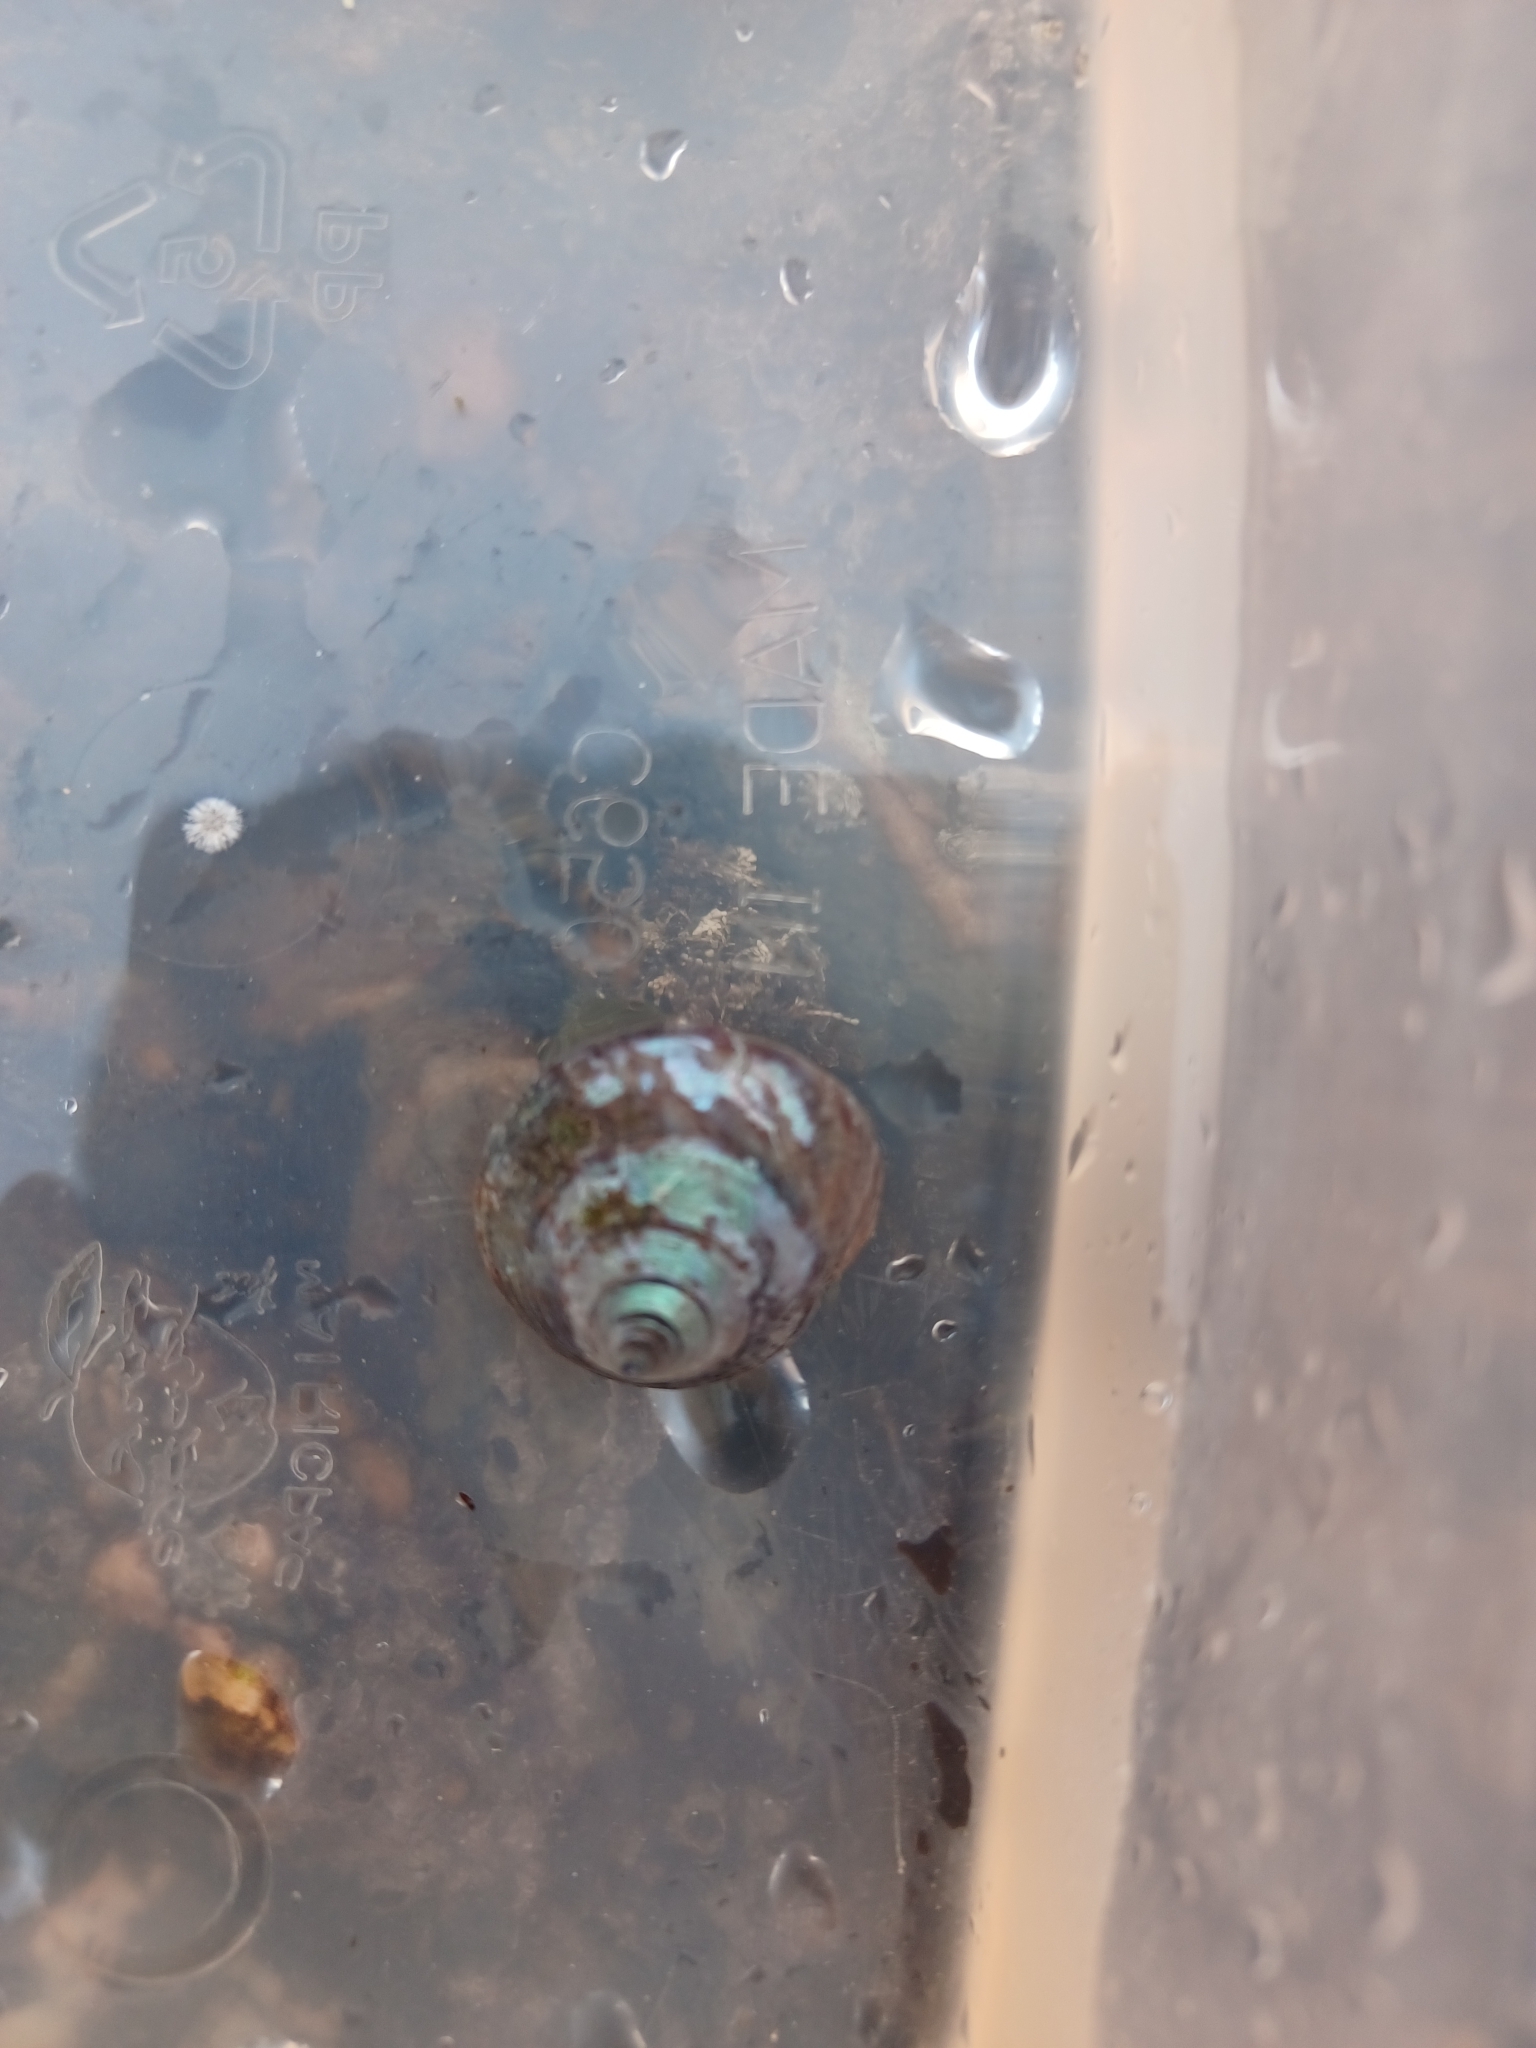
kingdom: Animalia
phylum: Mollusca
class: Gastropoda
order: Trochida
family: Calliostomatidae
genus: Calliostoma
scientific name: Calliostoma zizyphinum
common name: Painted top shell
